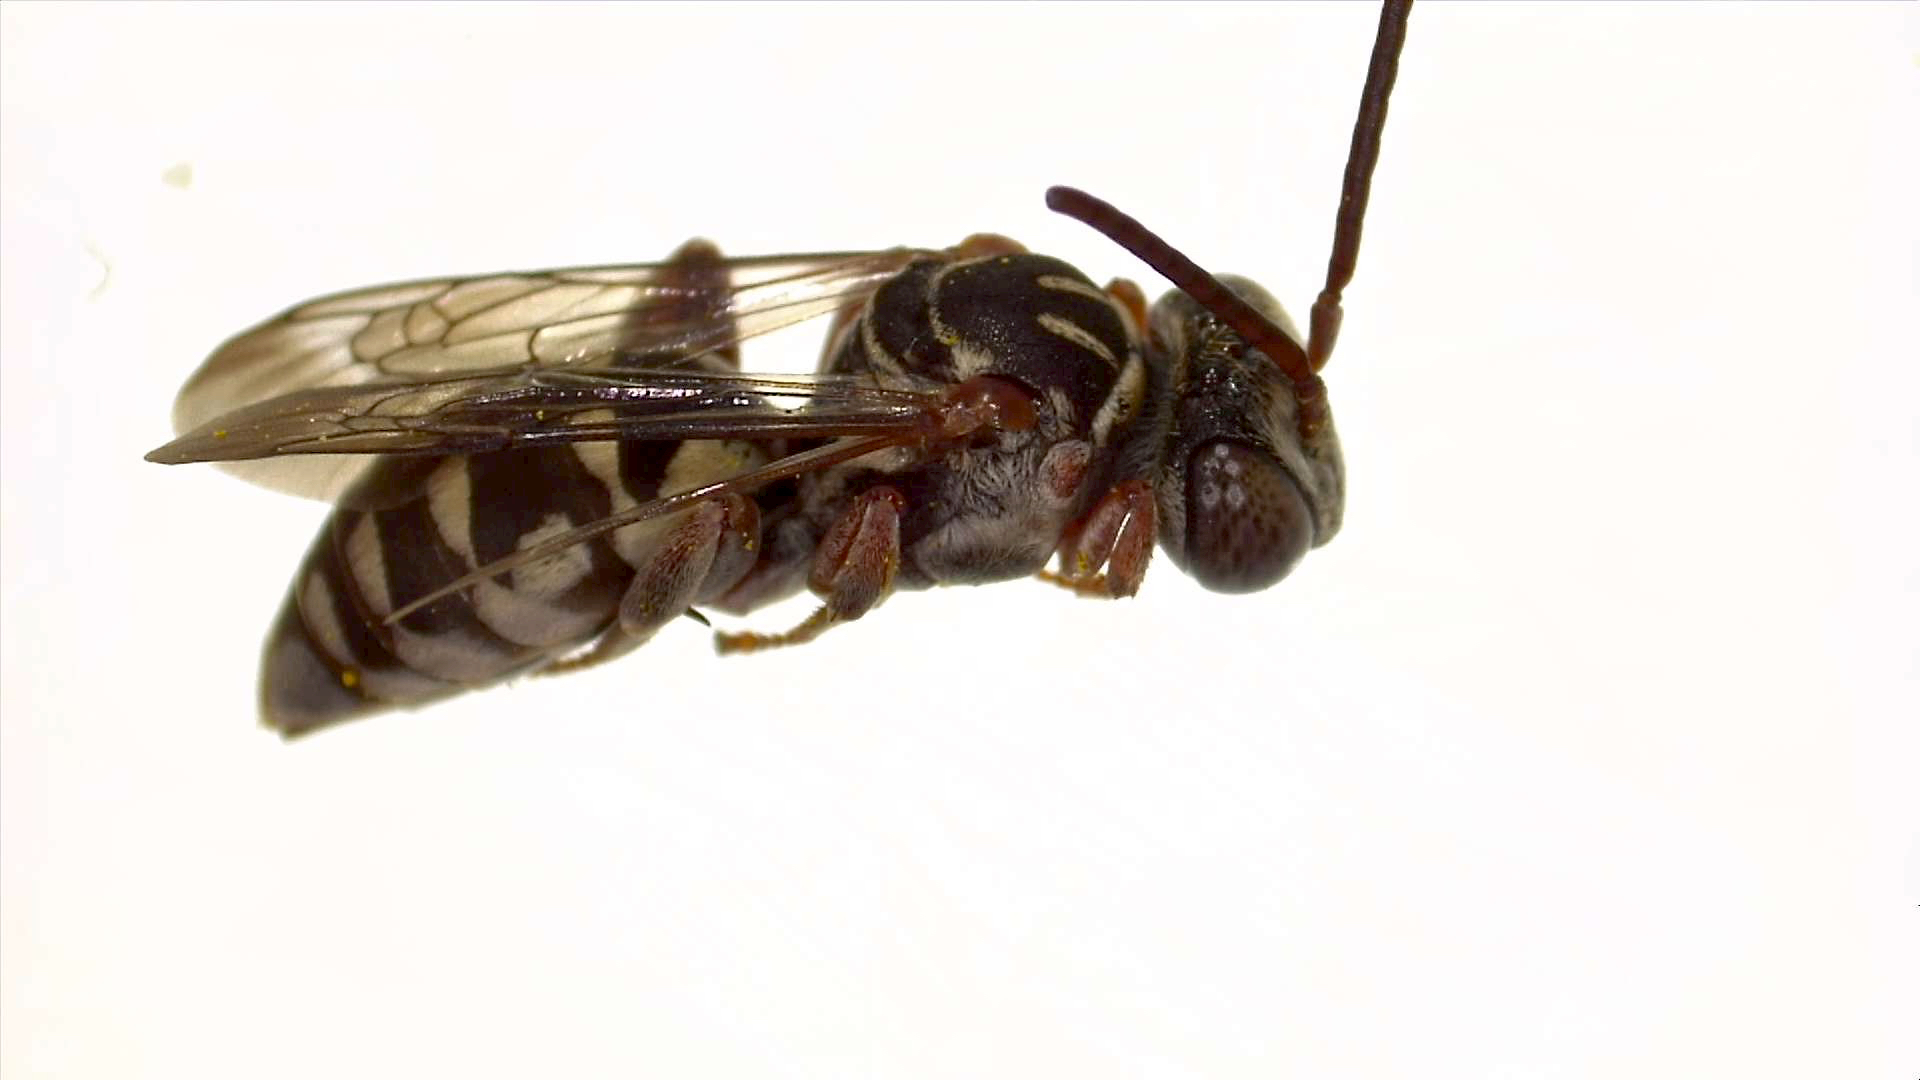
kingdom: Animalia
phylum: Arthropoda
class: Insecta
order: Hymenoptera
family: Apidae
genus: Triepeolus
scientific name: Triepeolus verbesinae
